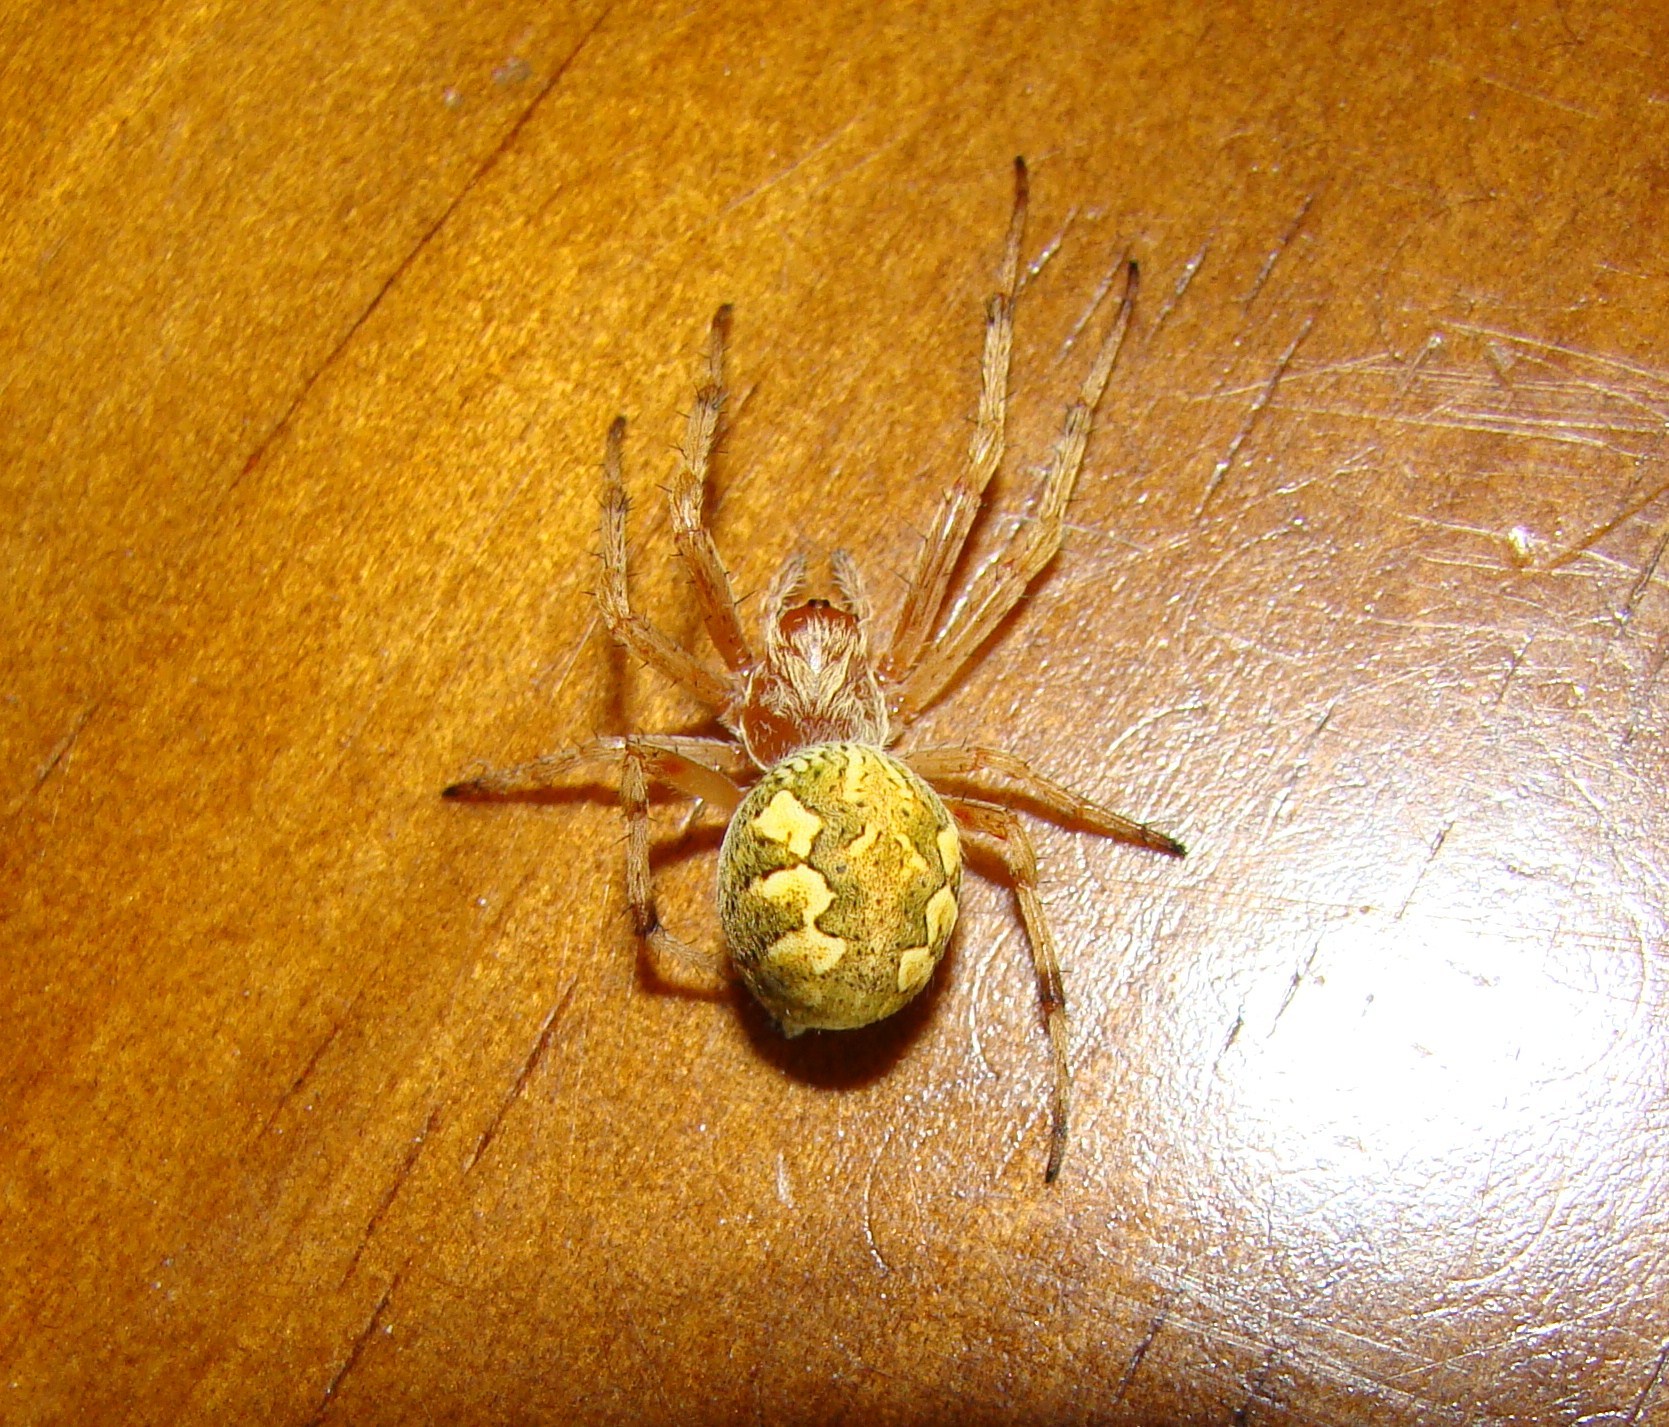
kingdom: Animalia
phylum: Arthropoda
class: Arachnida
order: Araneae
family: Araneidae
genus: Salsa
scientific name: Salsa fuliginata
